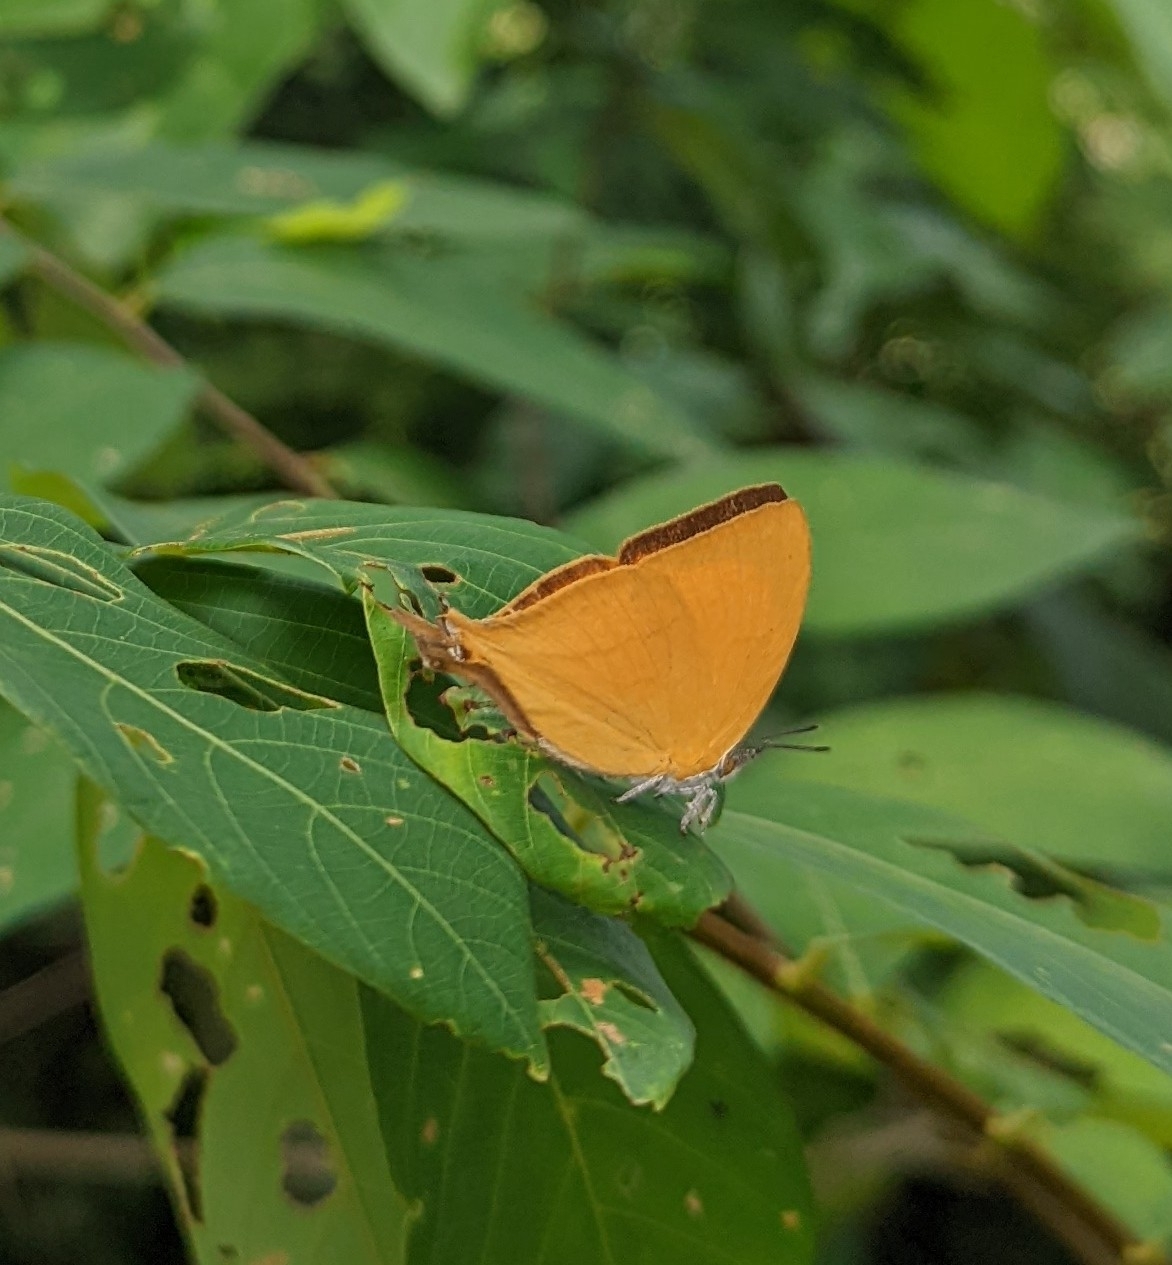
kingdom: Animalia
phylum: Arthropoda
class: Insecta
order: Lepidoptera
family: Lycaenidae
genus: Loxura
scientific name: Loxura atymnus
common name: Common yamfly
